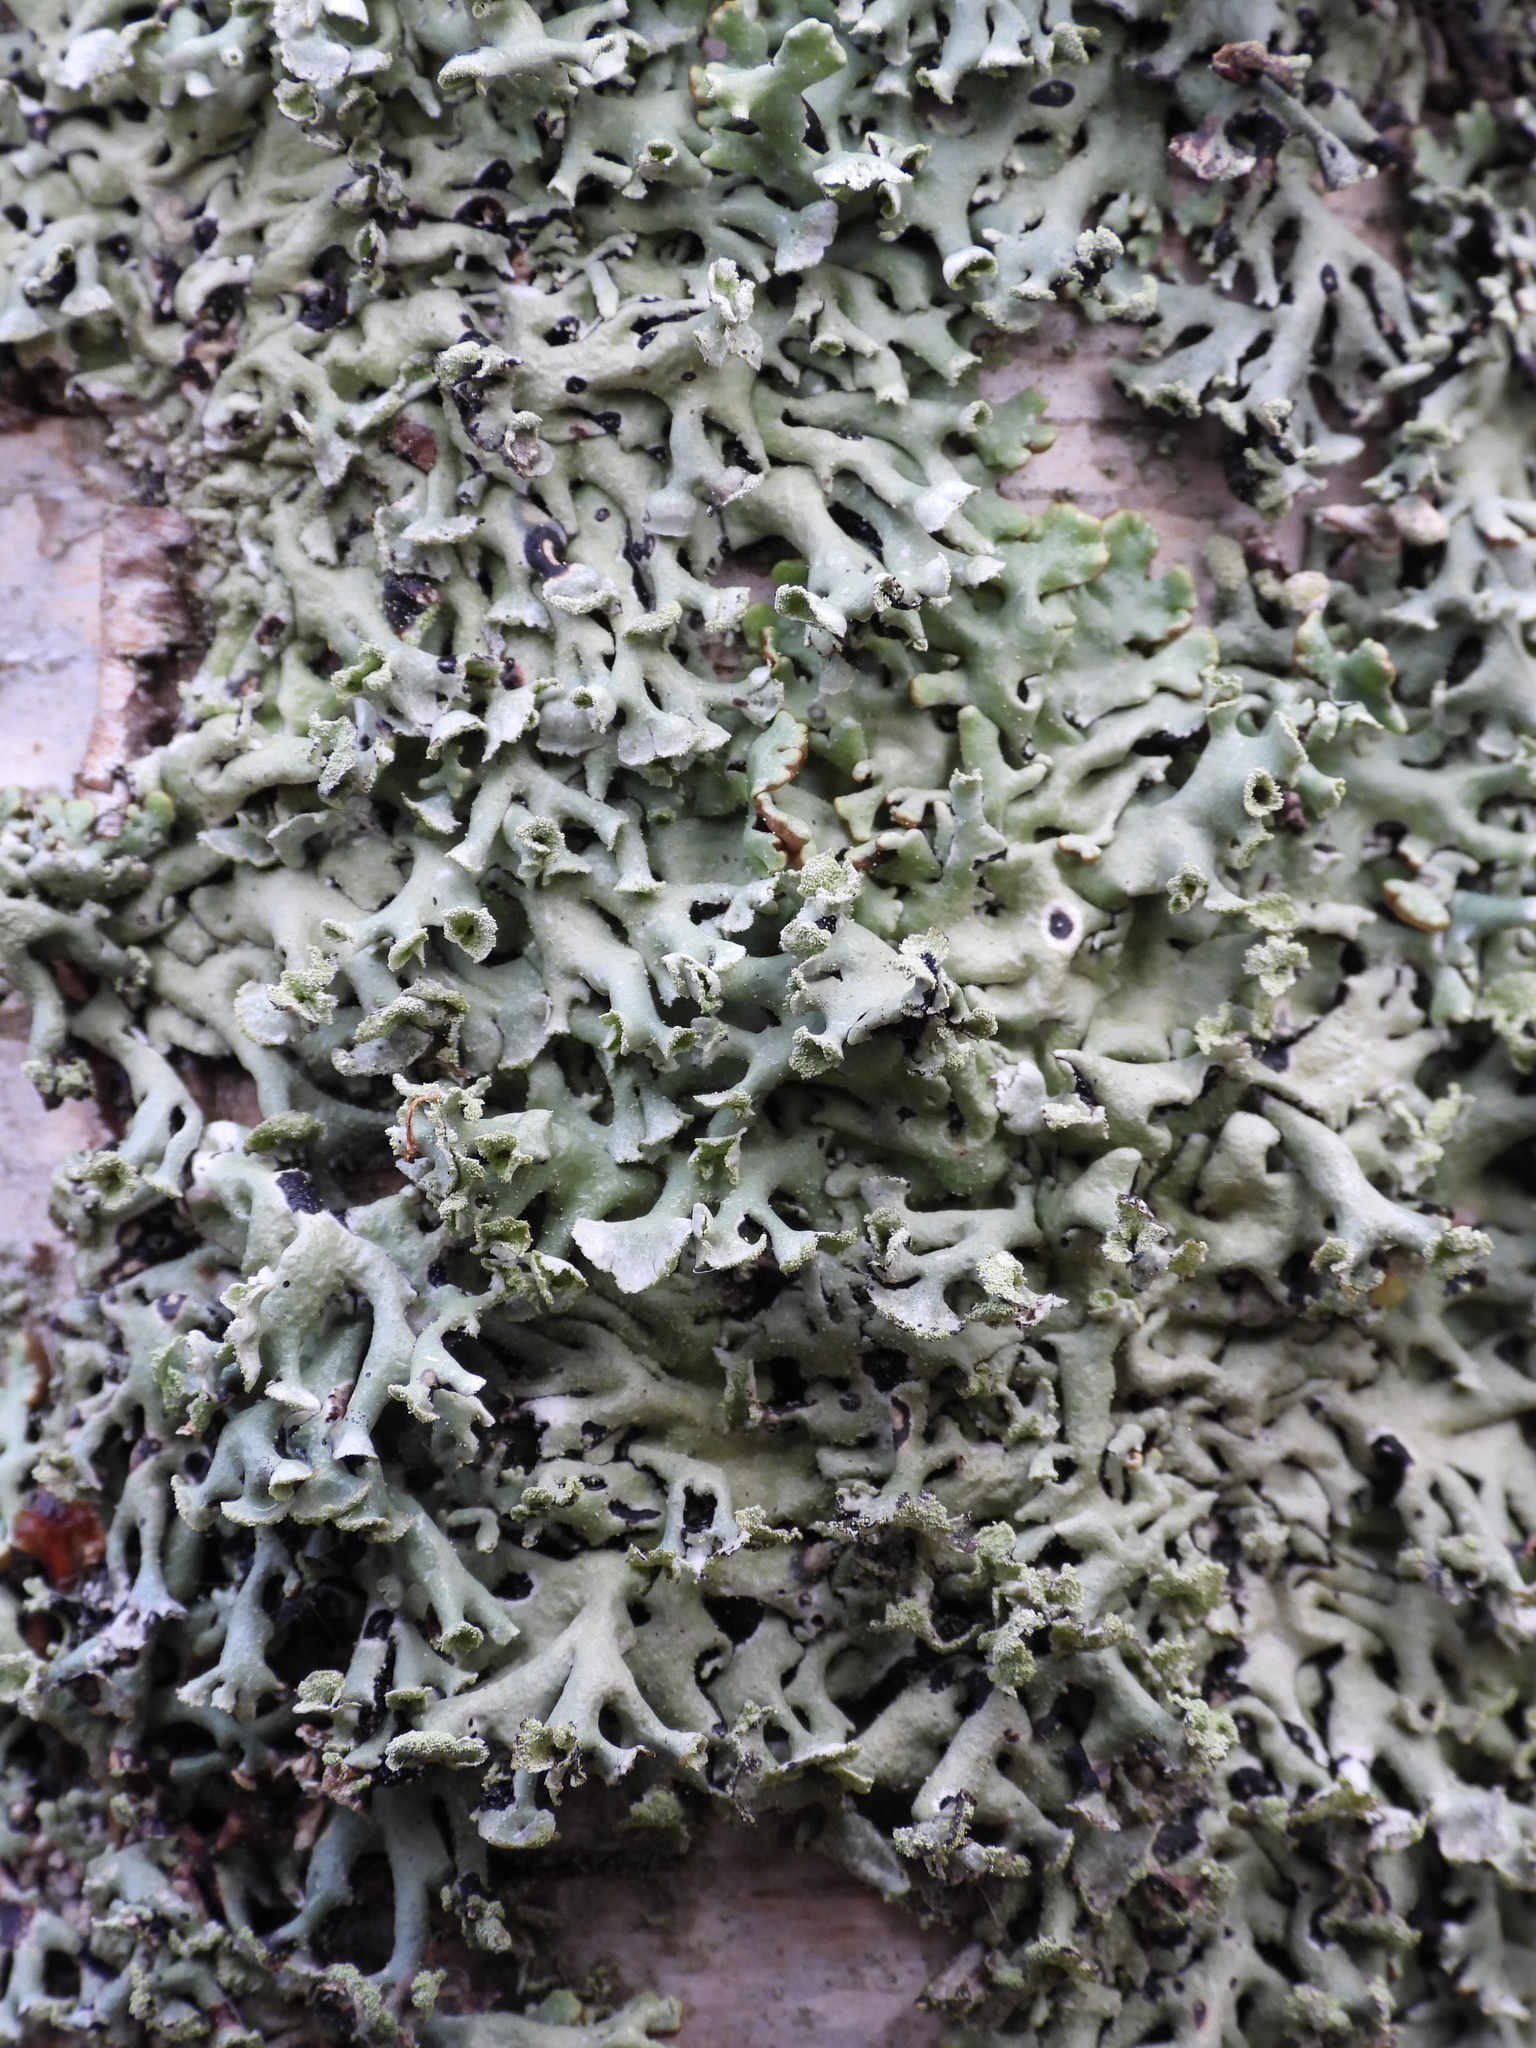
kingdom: Fungi
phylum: Ascomycota
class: Lecanoromycetes
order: Lecanorales
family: Parmeliaceae
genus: Hypogymnia
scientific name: Hypogymnia physodes
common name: Dark crottle
